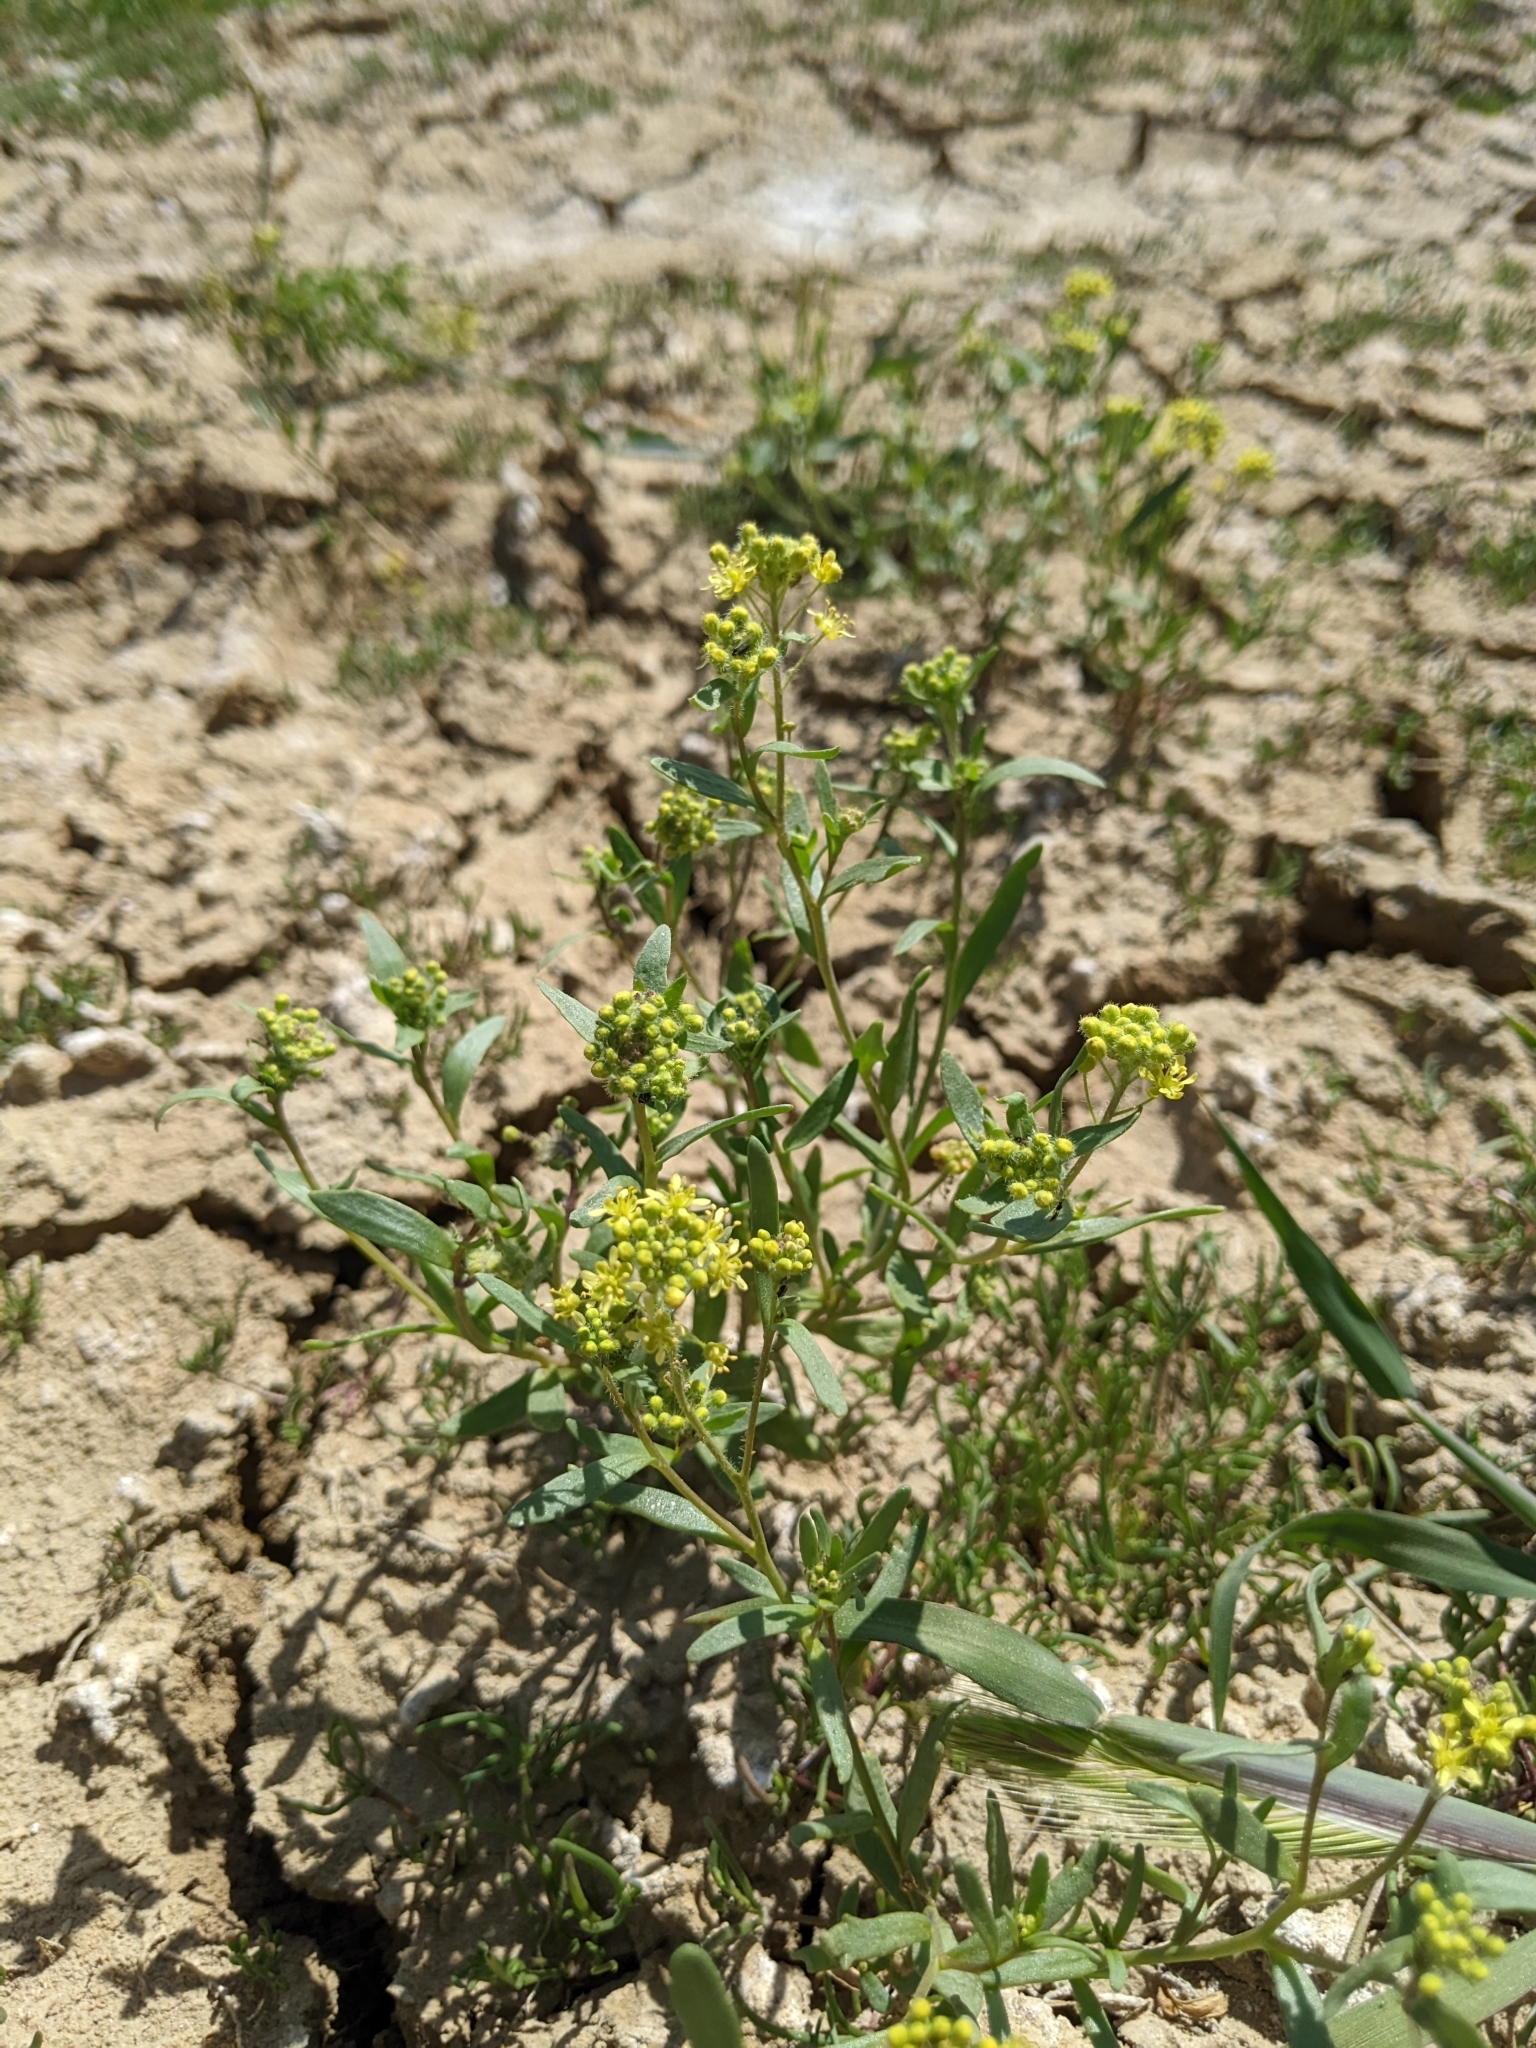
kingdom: Plantae
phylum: Tracheophyta
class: Magnoliopsida
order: Brassicales
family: Brassicaceae
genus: Lepidium
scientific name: Lepidium jaredii
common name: Jared's peppergrass
